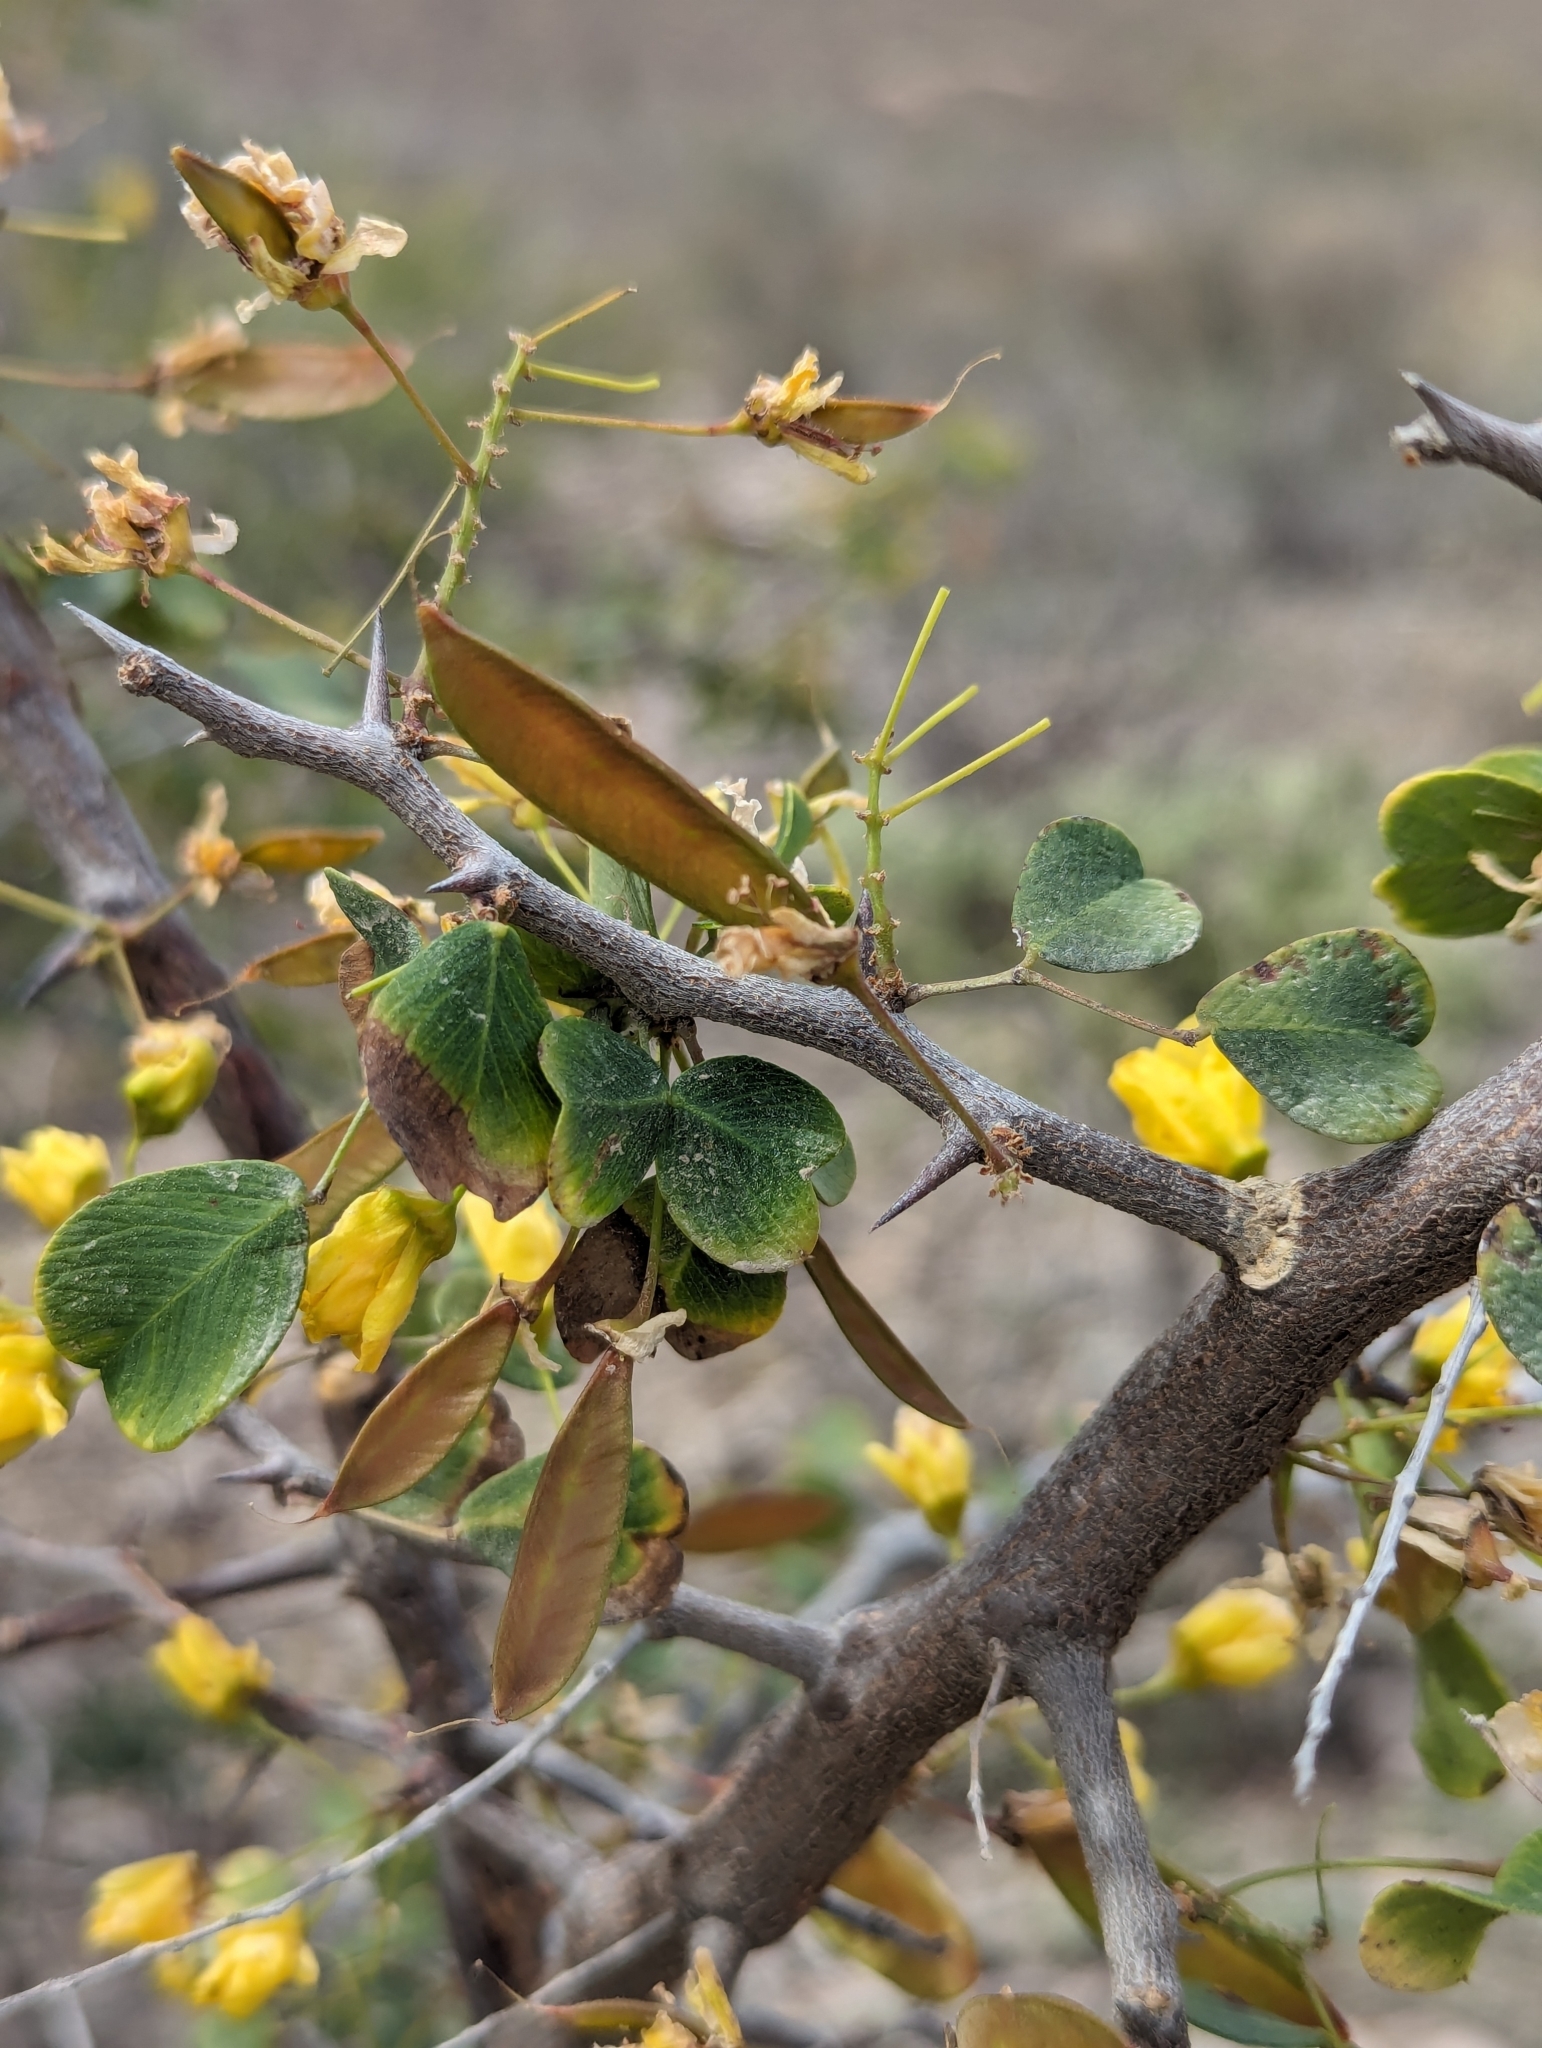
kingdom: Plantae
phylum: Tracheophyta
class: Magnoliopsida
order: Fabales
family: Fabaceae
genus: Haematoxylum
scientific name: Haematoxylum brasiletto
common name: Peachwood
